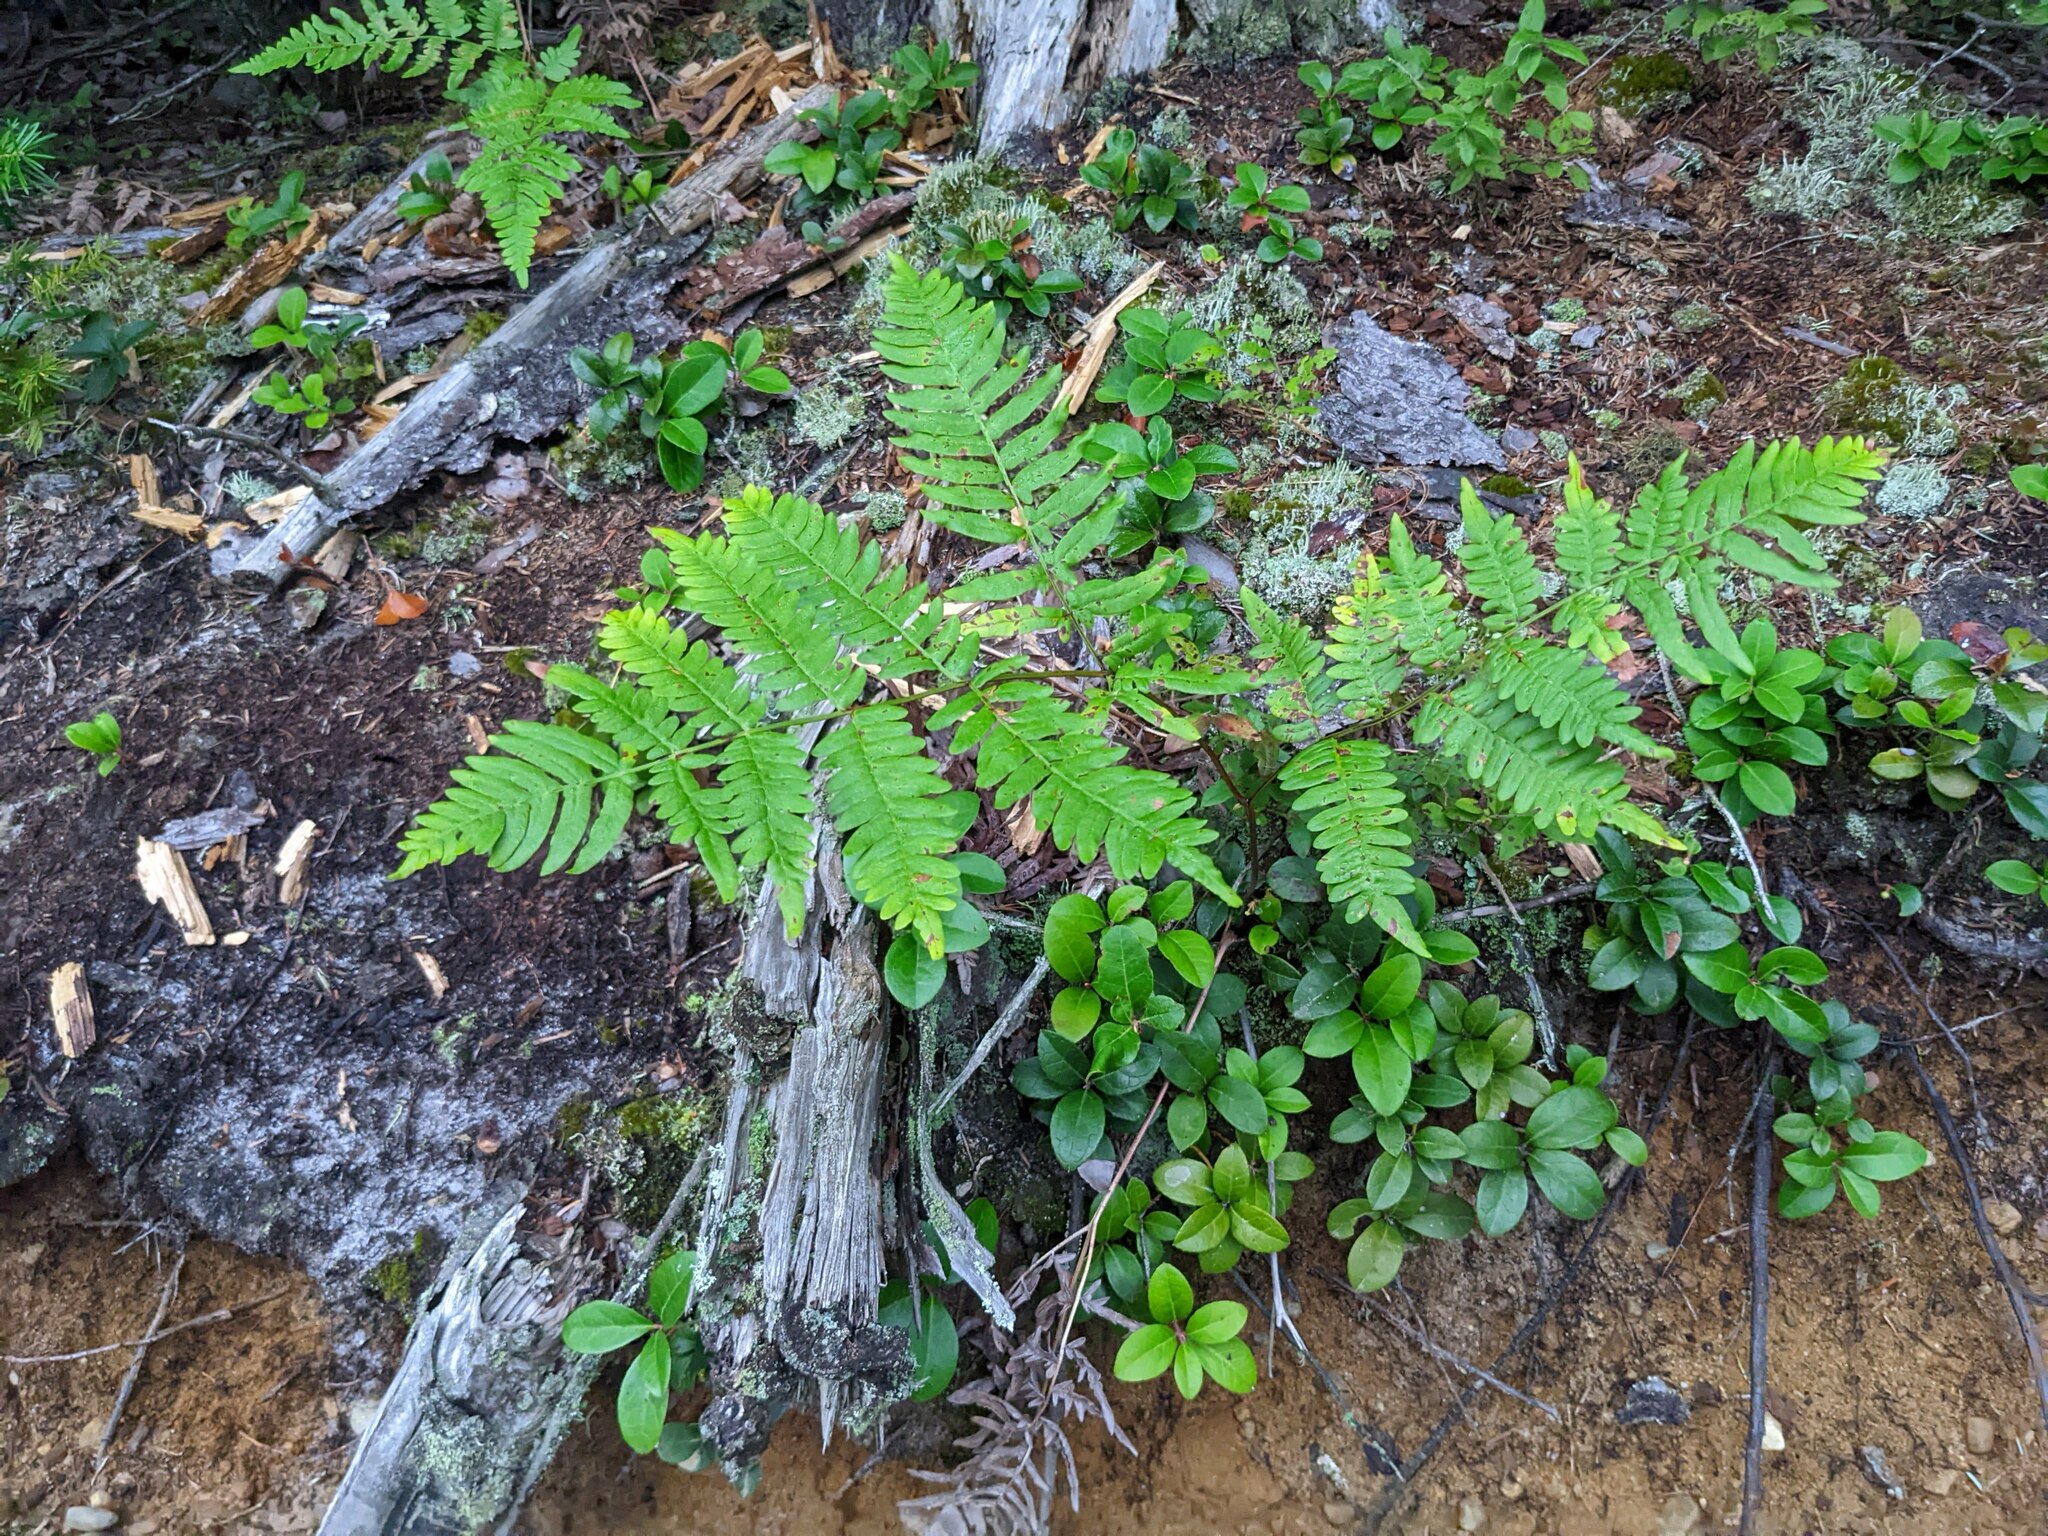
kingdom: Plantae
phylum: Tracheophyta
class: Polypodiopsida
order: Polypodiales
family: Dennstaedtiaceae
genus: Pteridium
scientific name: Pteridium aquilinum
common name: Bracken
